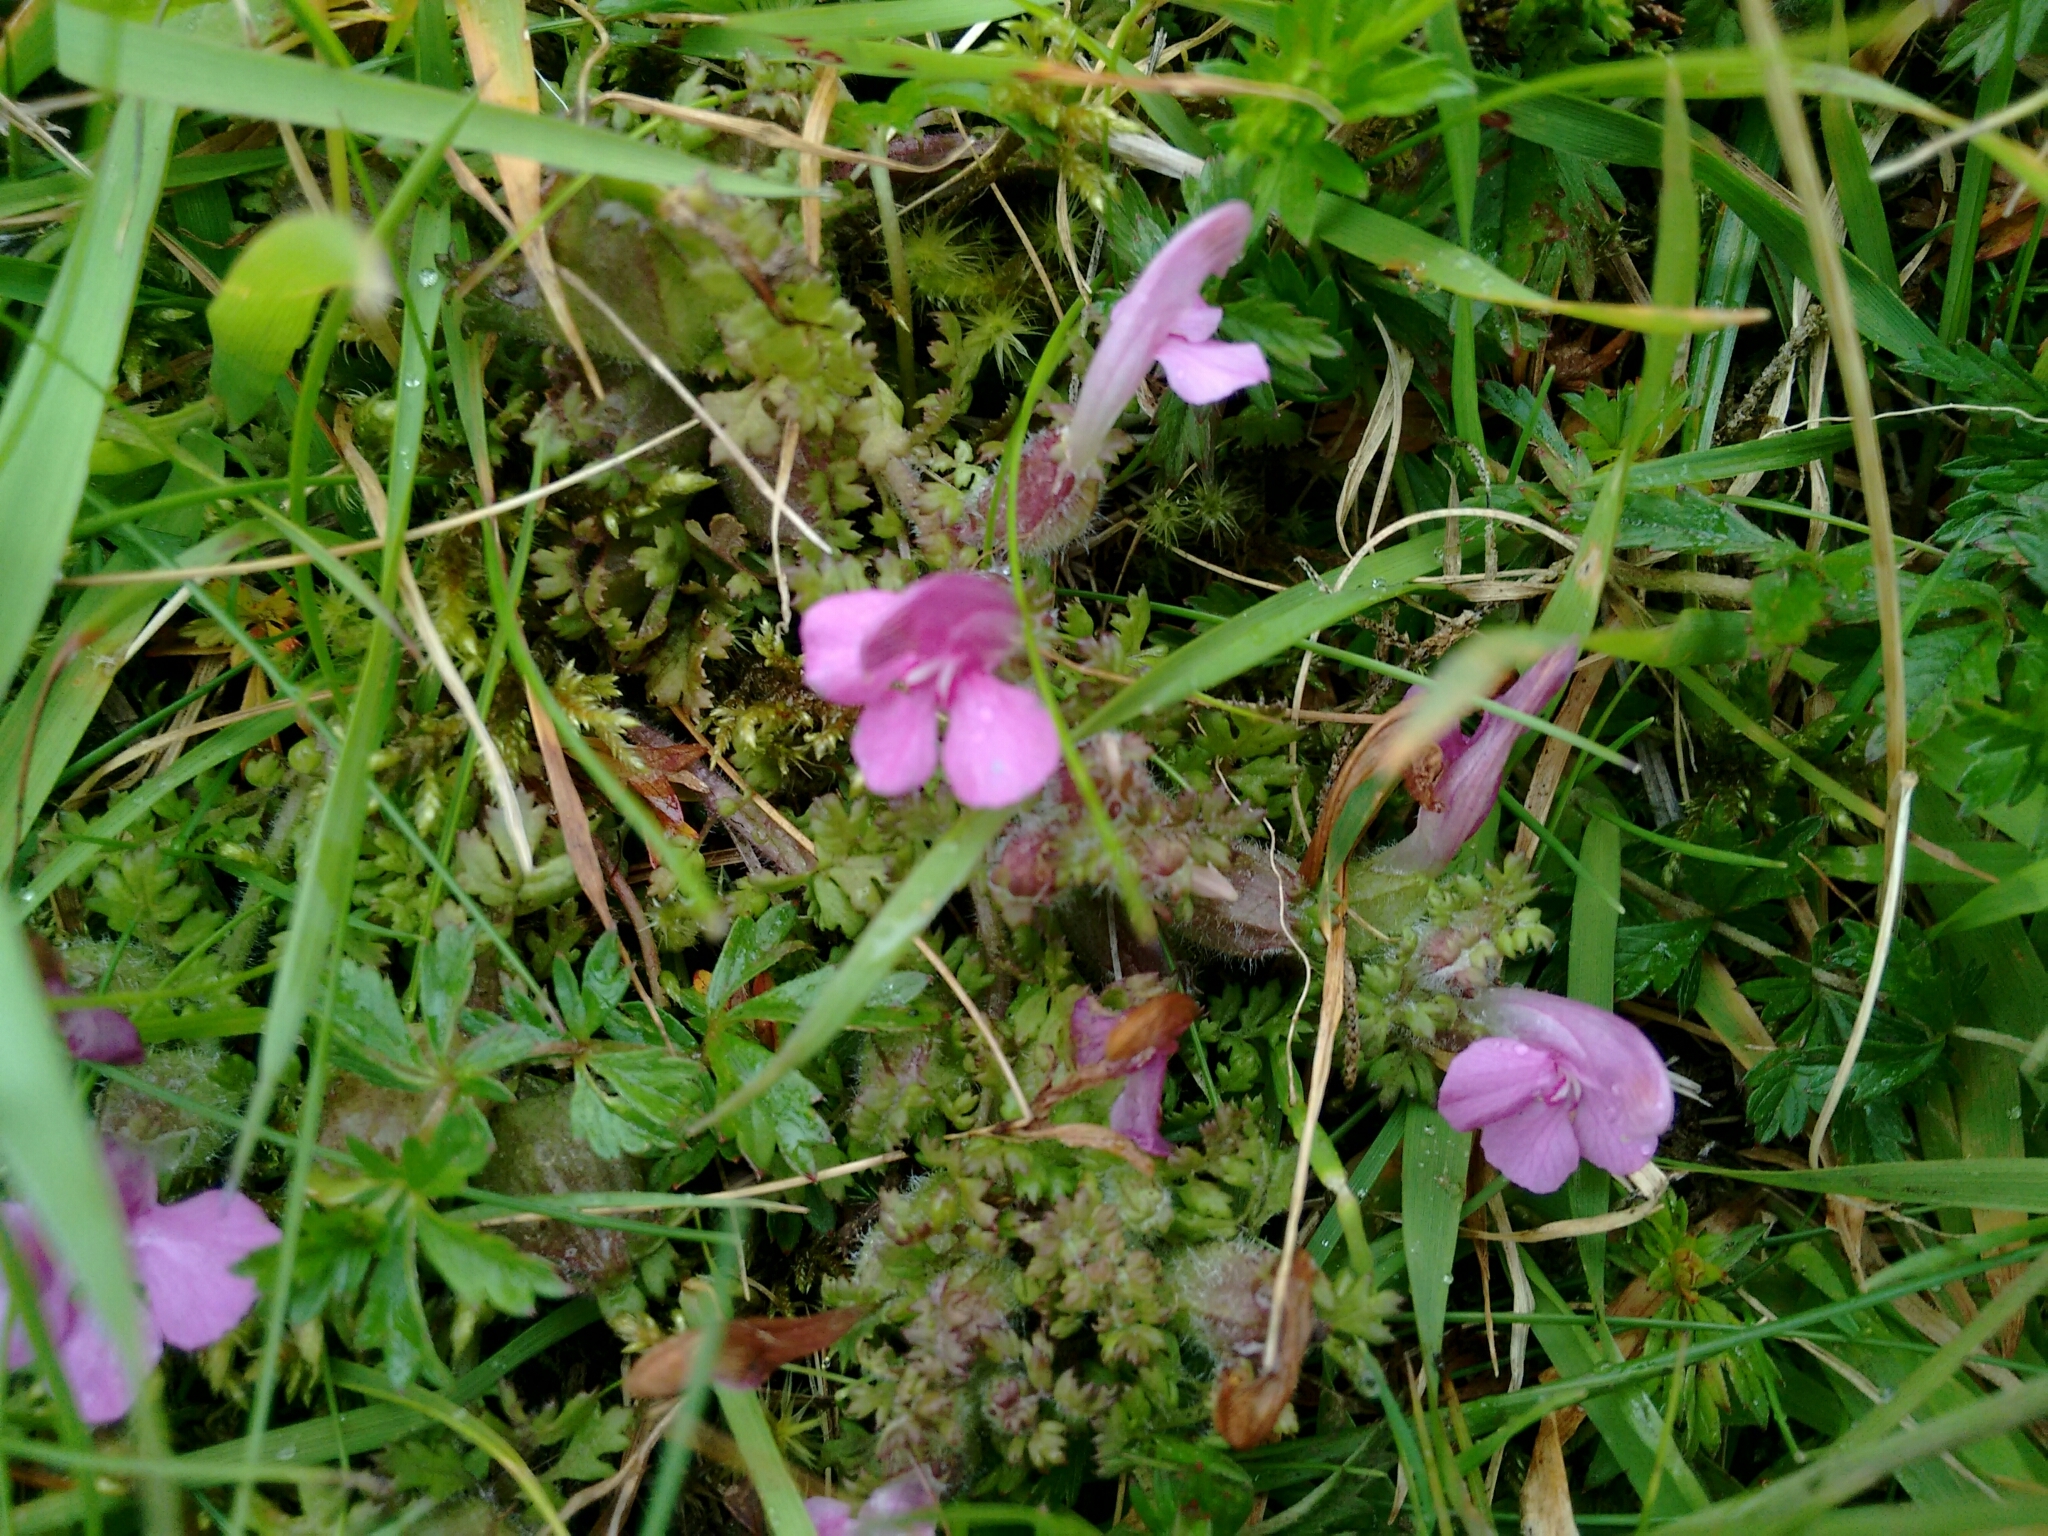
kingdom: Plantae
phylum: Tracheophyta
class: Magnoliopsida
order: Lamiales
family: Orobanchaceae
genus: Pedicularis
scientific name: Pedicularis sylvatica
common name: Lousewort
